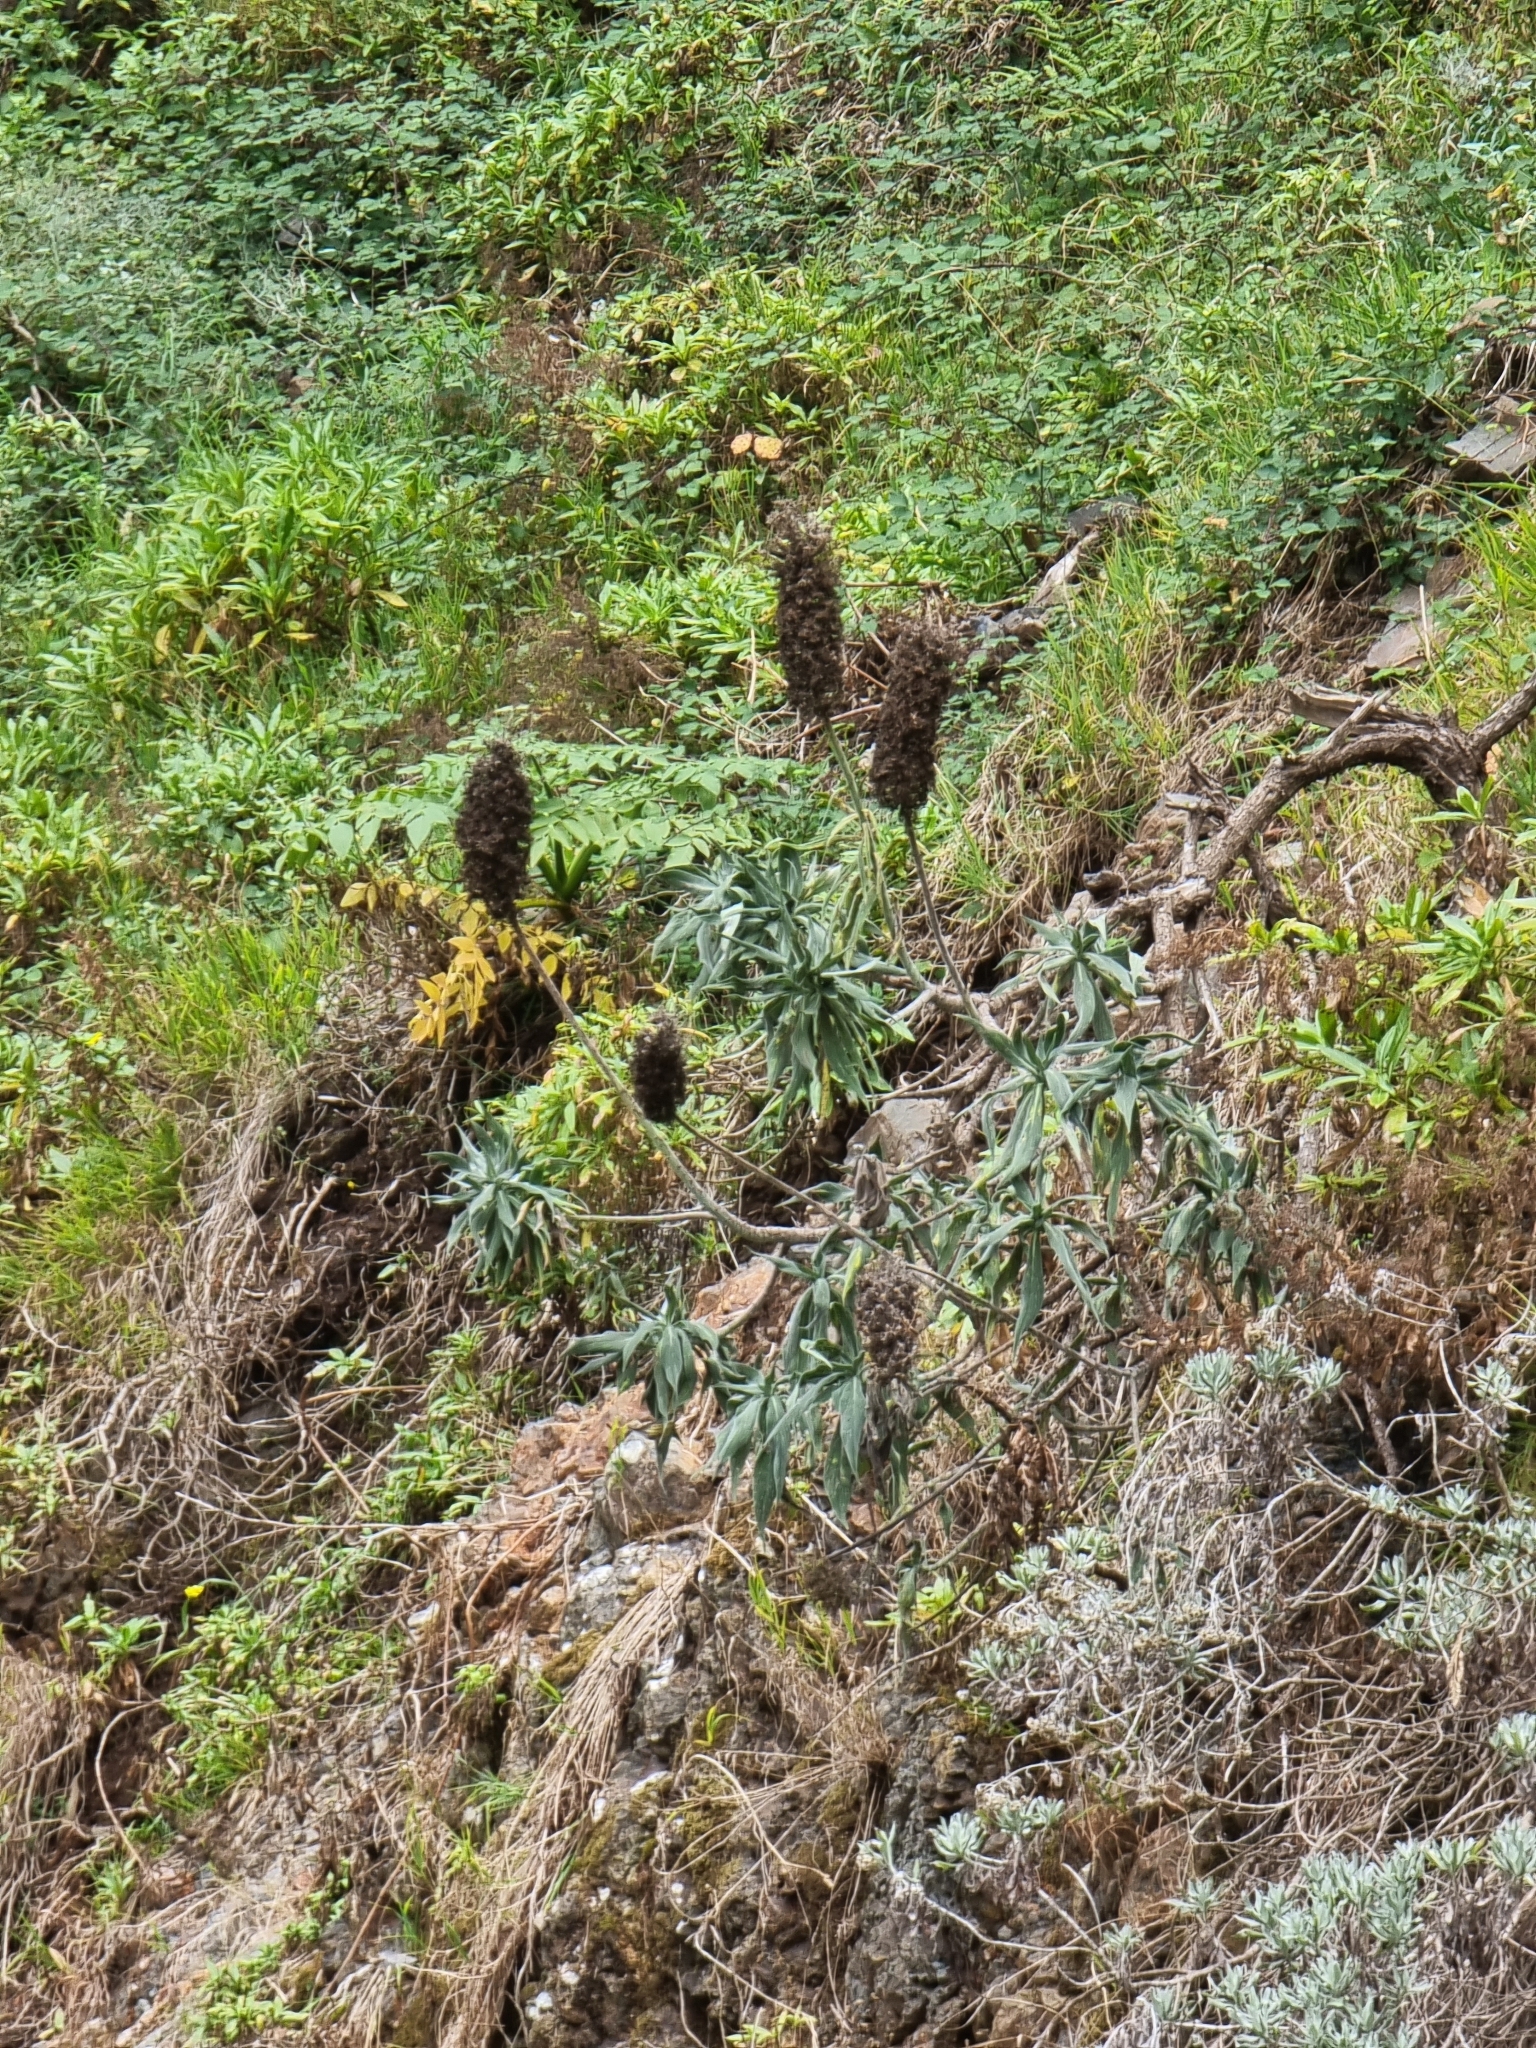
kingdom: Plantae
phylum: Tracheophyta
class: Magnoliopsida
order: Boraginales
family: Boraginaceae
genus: Echium
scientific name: Echium candicans
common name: Pride of madeira
